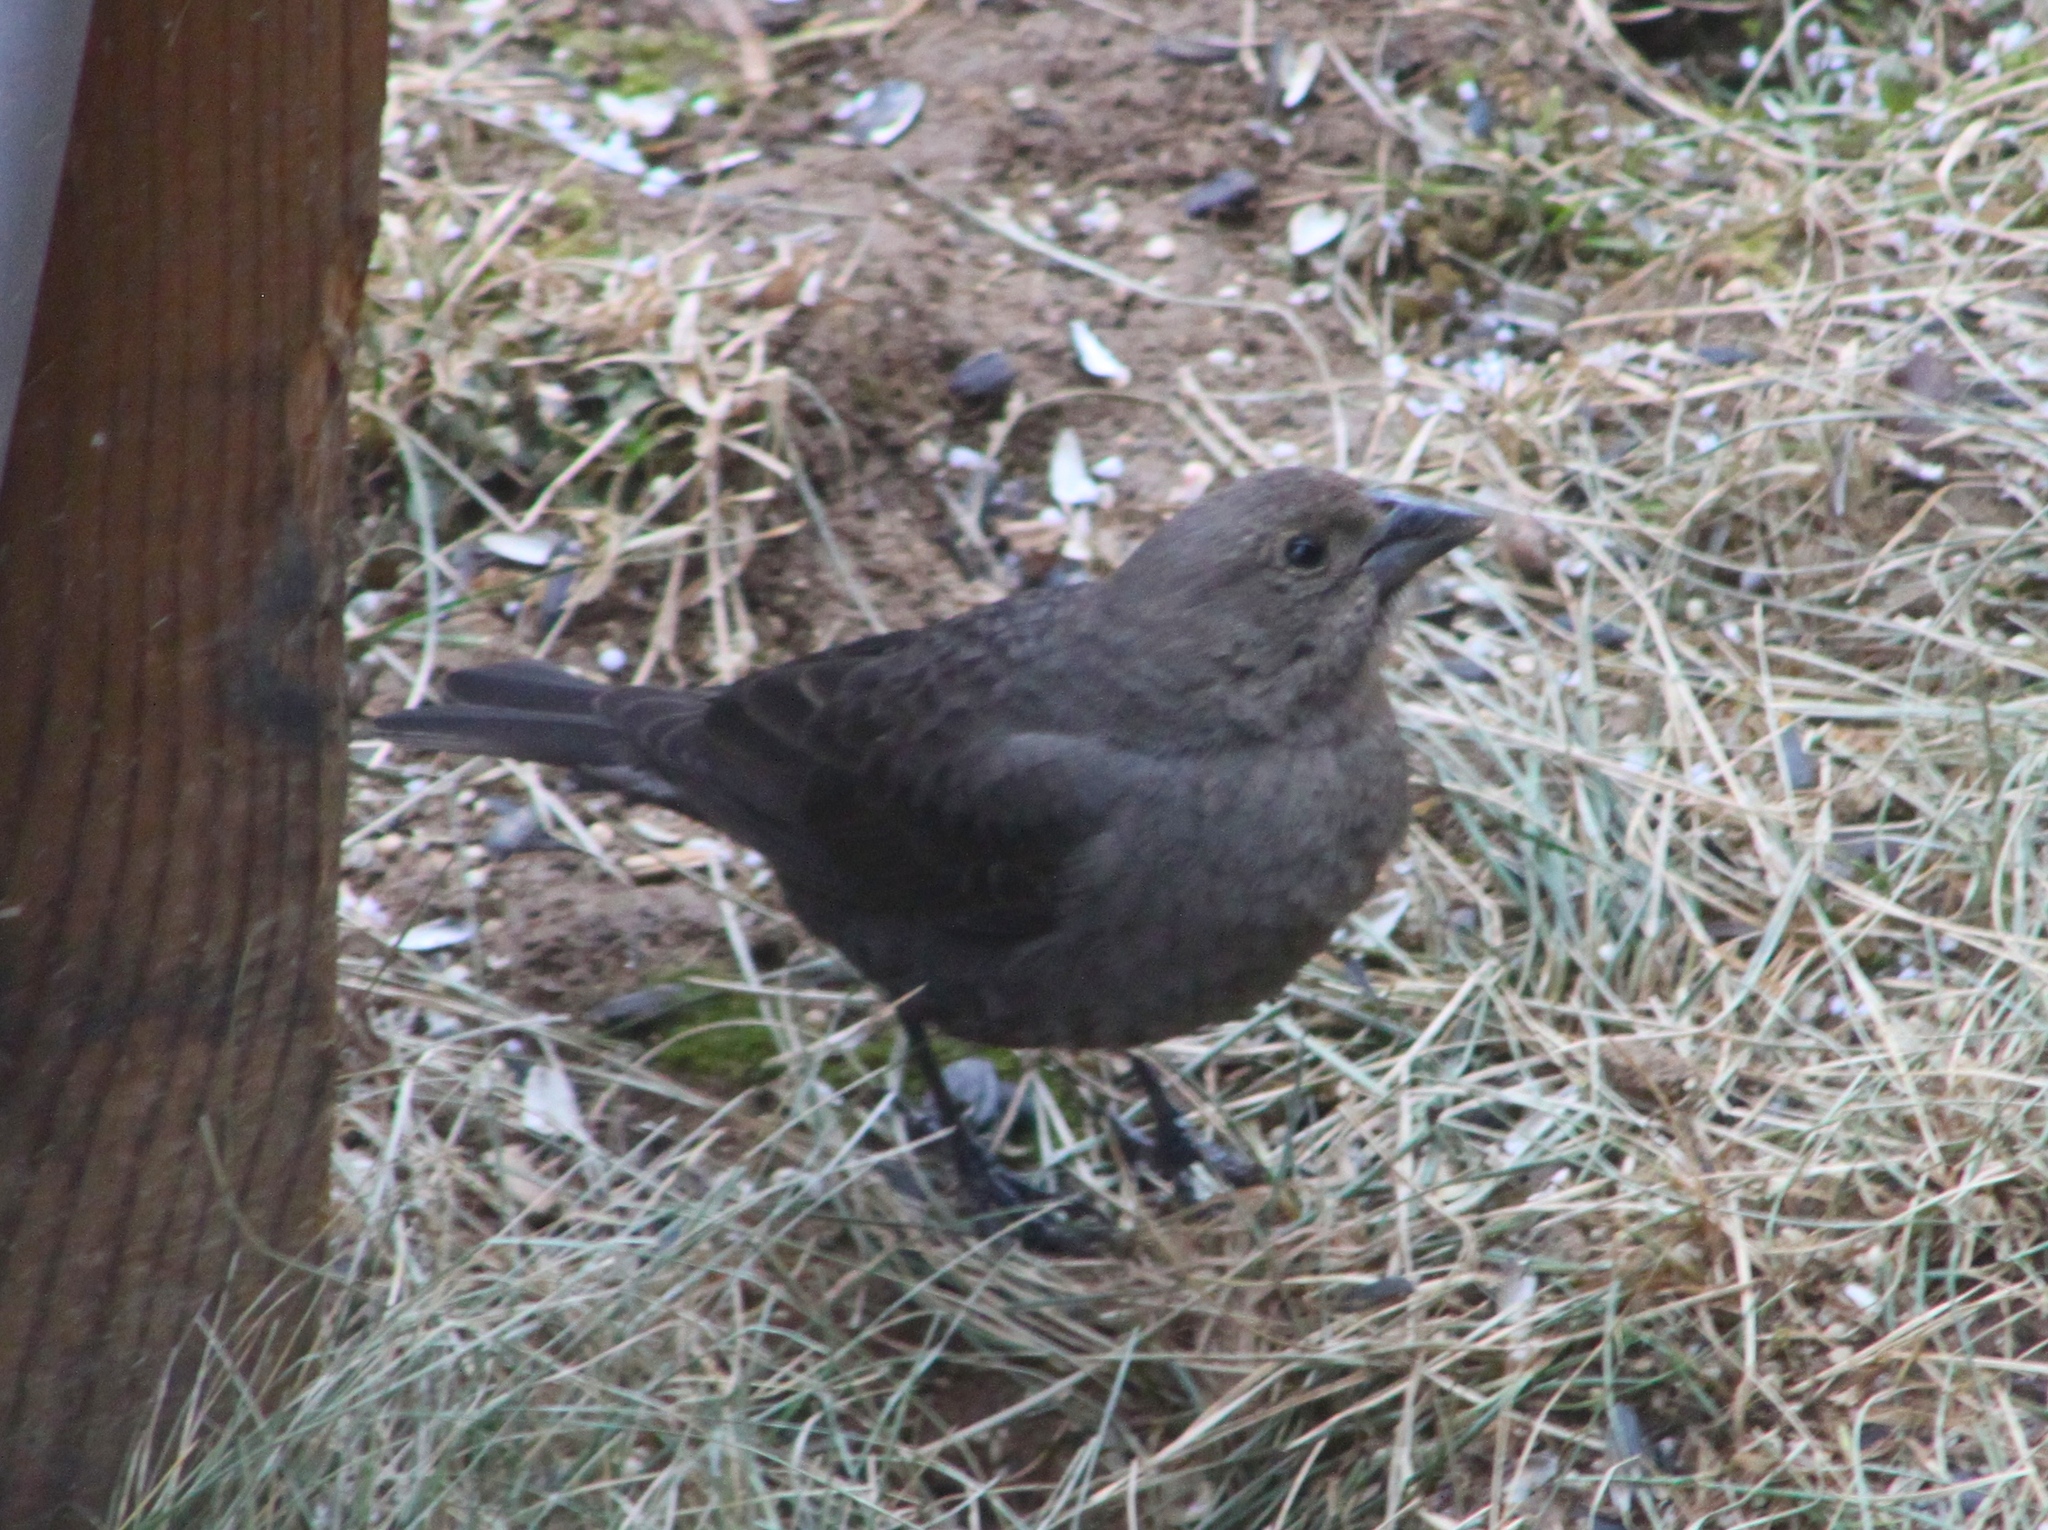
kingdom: Animalia
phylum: Chordata
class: Aves
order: Passeriformes
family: Icteridae
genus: Molothrus
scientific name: Molothrus ater
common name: Brown-headed cowbird
